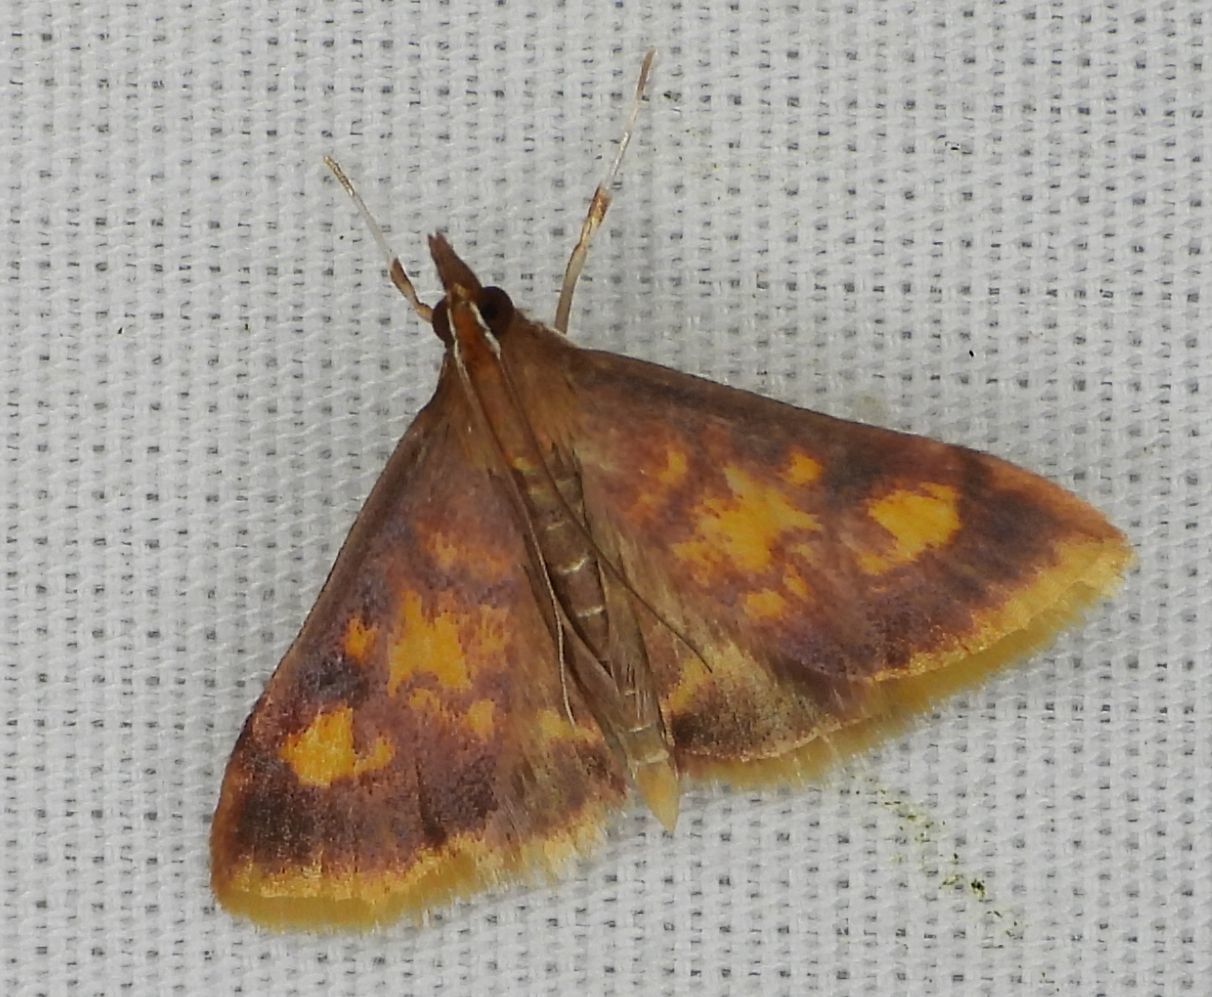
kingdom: Animalia
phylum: Arthropoda
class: Insecta
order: Lepidoptera
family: Crambidae
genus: Pyrausta
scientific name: Pyrausta acrionalis
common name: Mint-loving pyrausta moth
